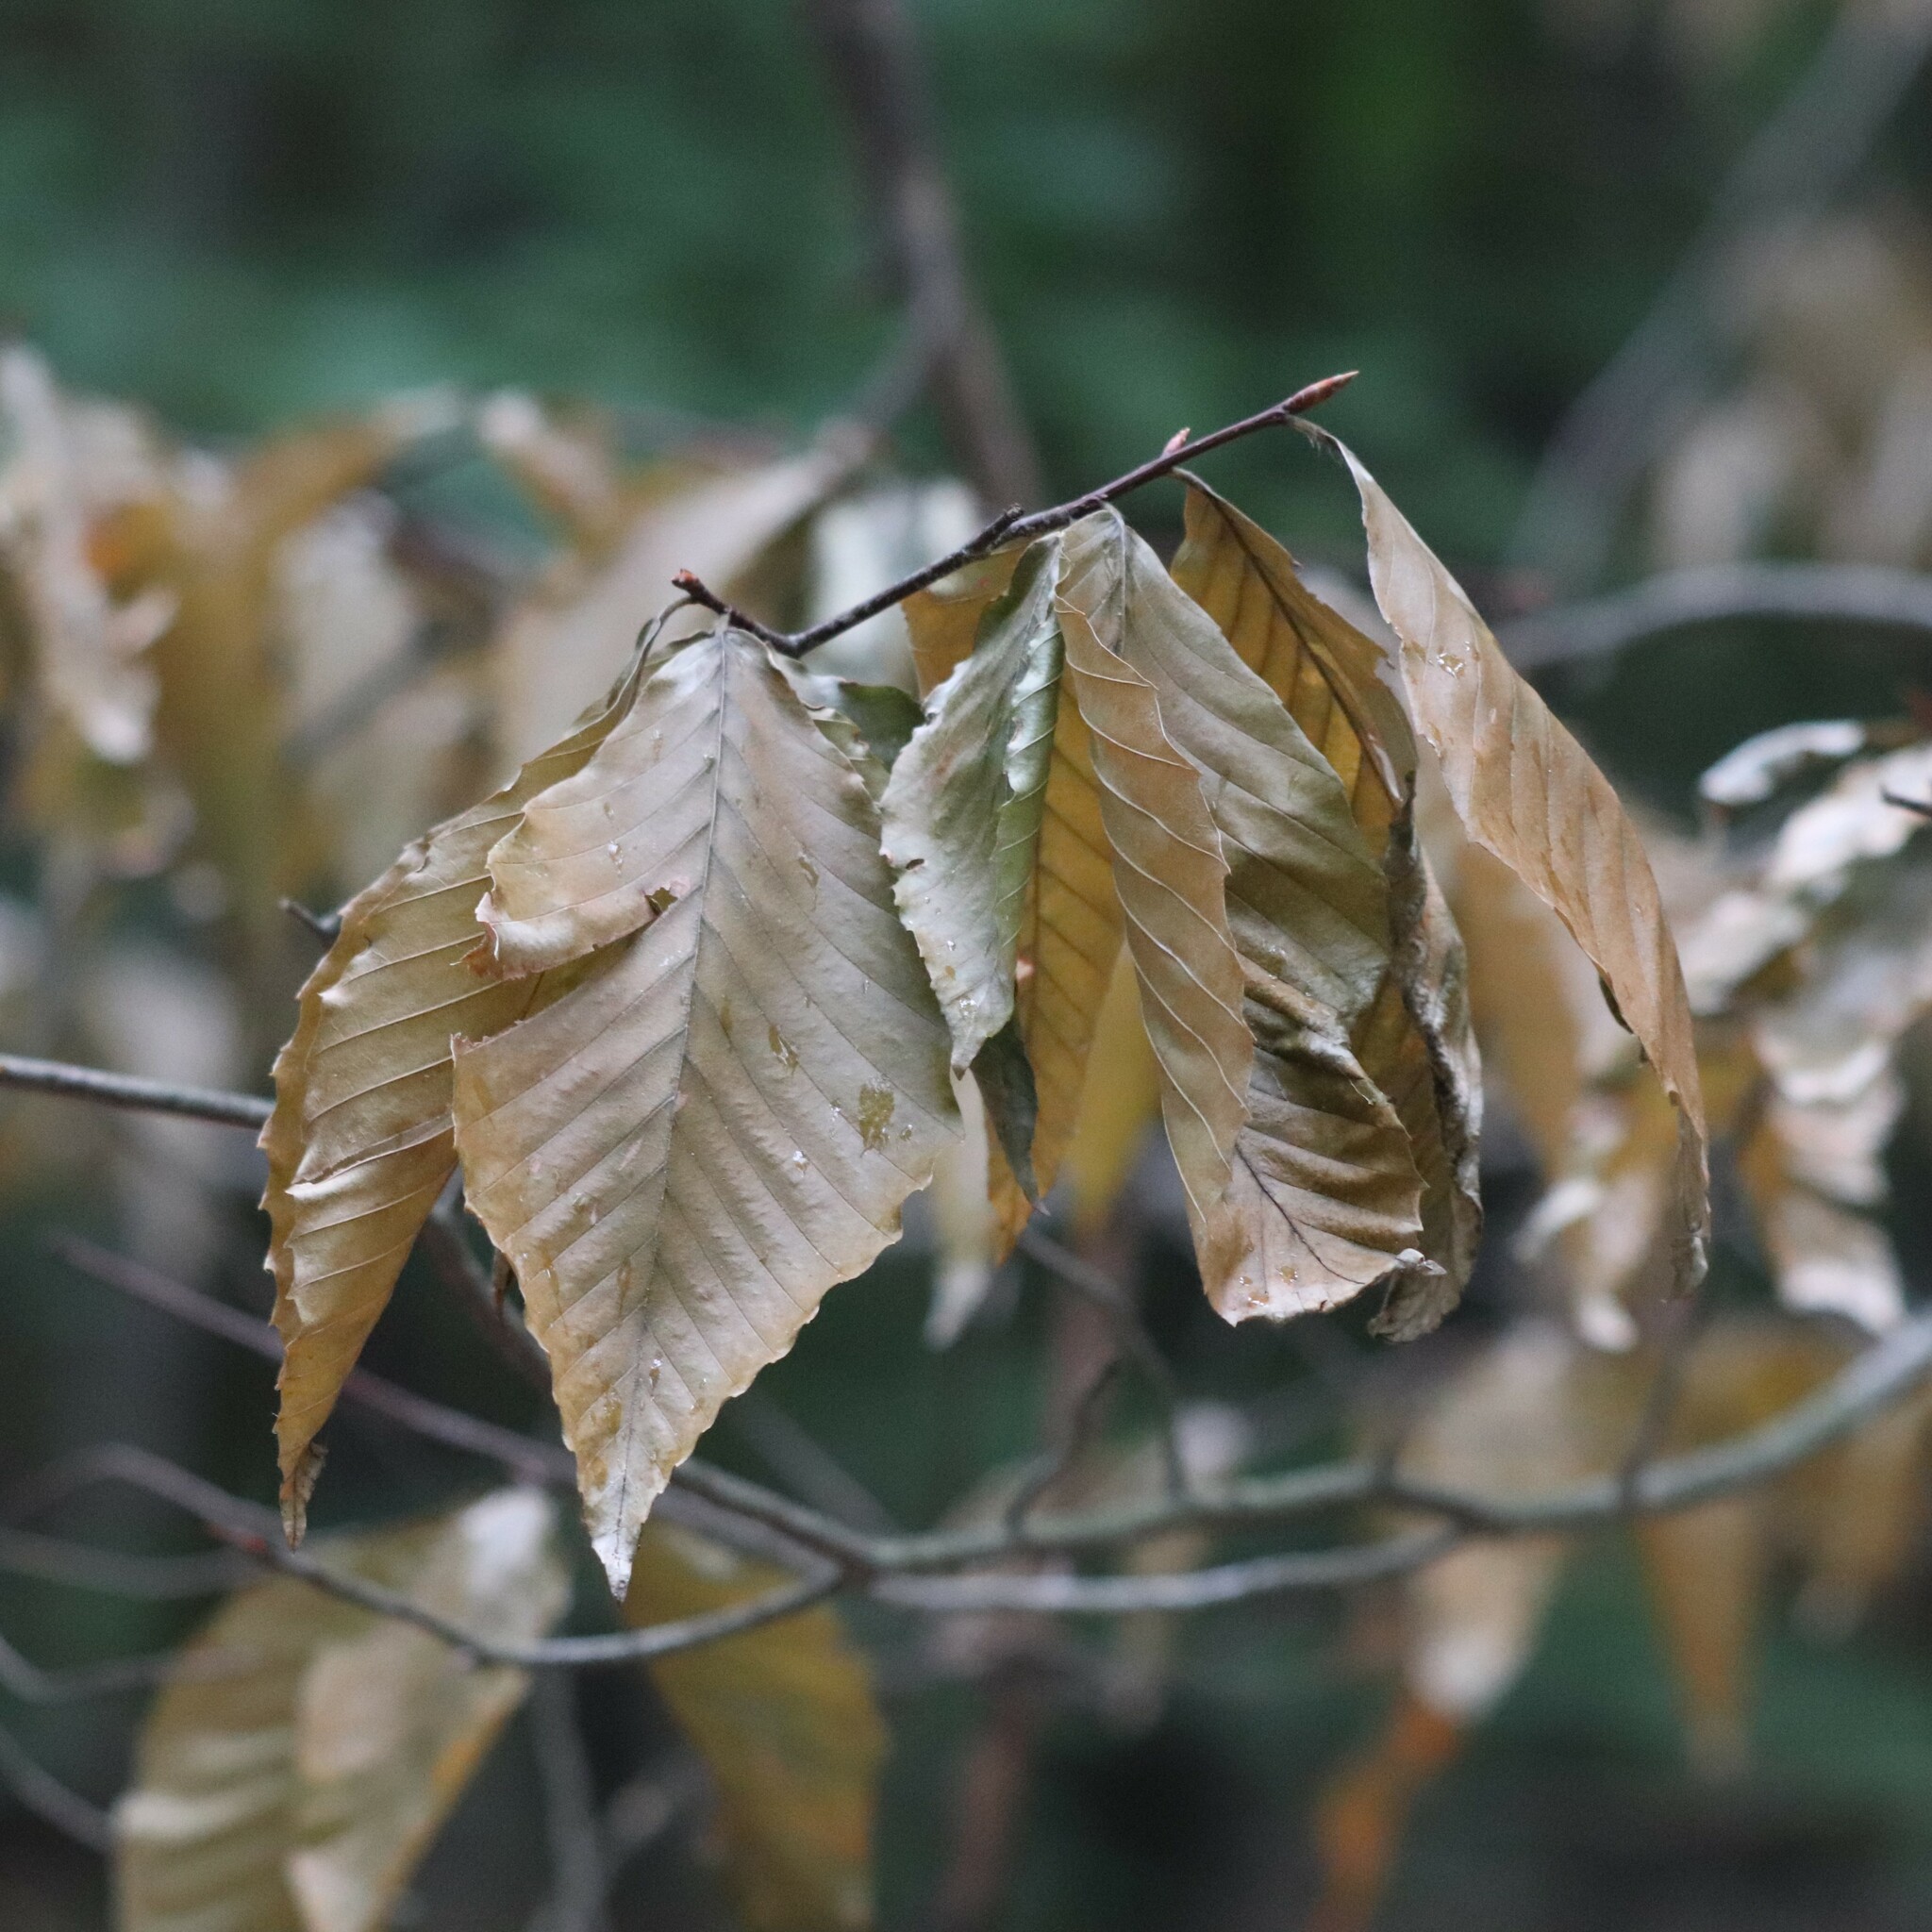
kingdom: Plantae
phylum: Tracheophyta
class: Magnoliopsida
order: Fagales
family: Fagaceae
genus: Fagus
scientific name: Fagus grandifolia
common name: American beech
